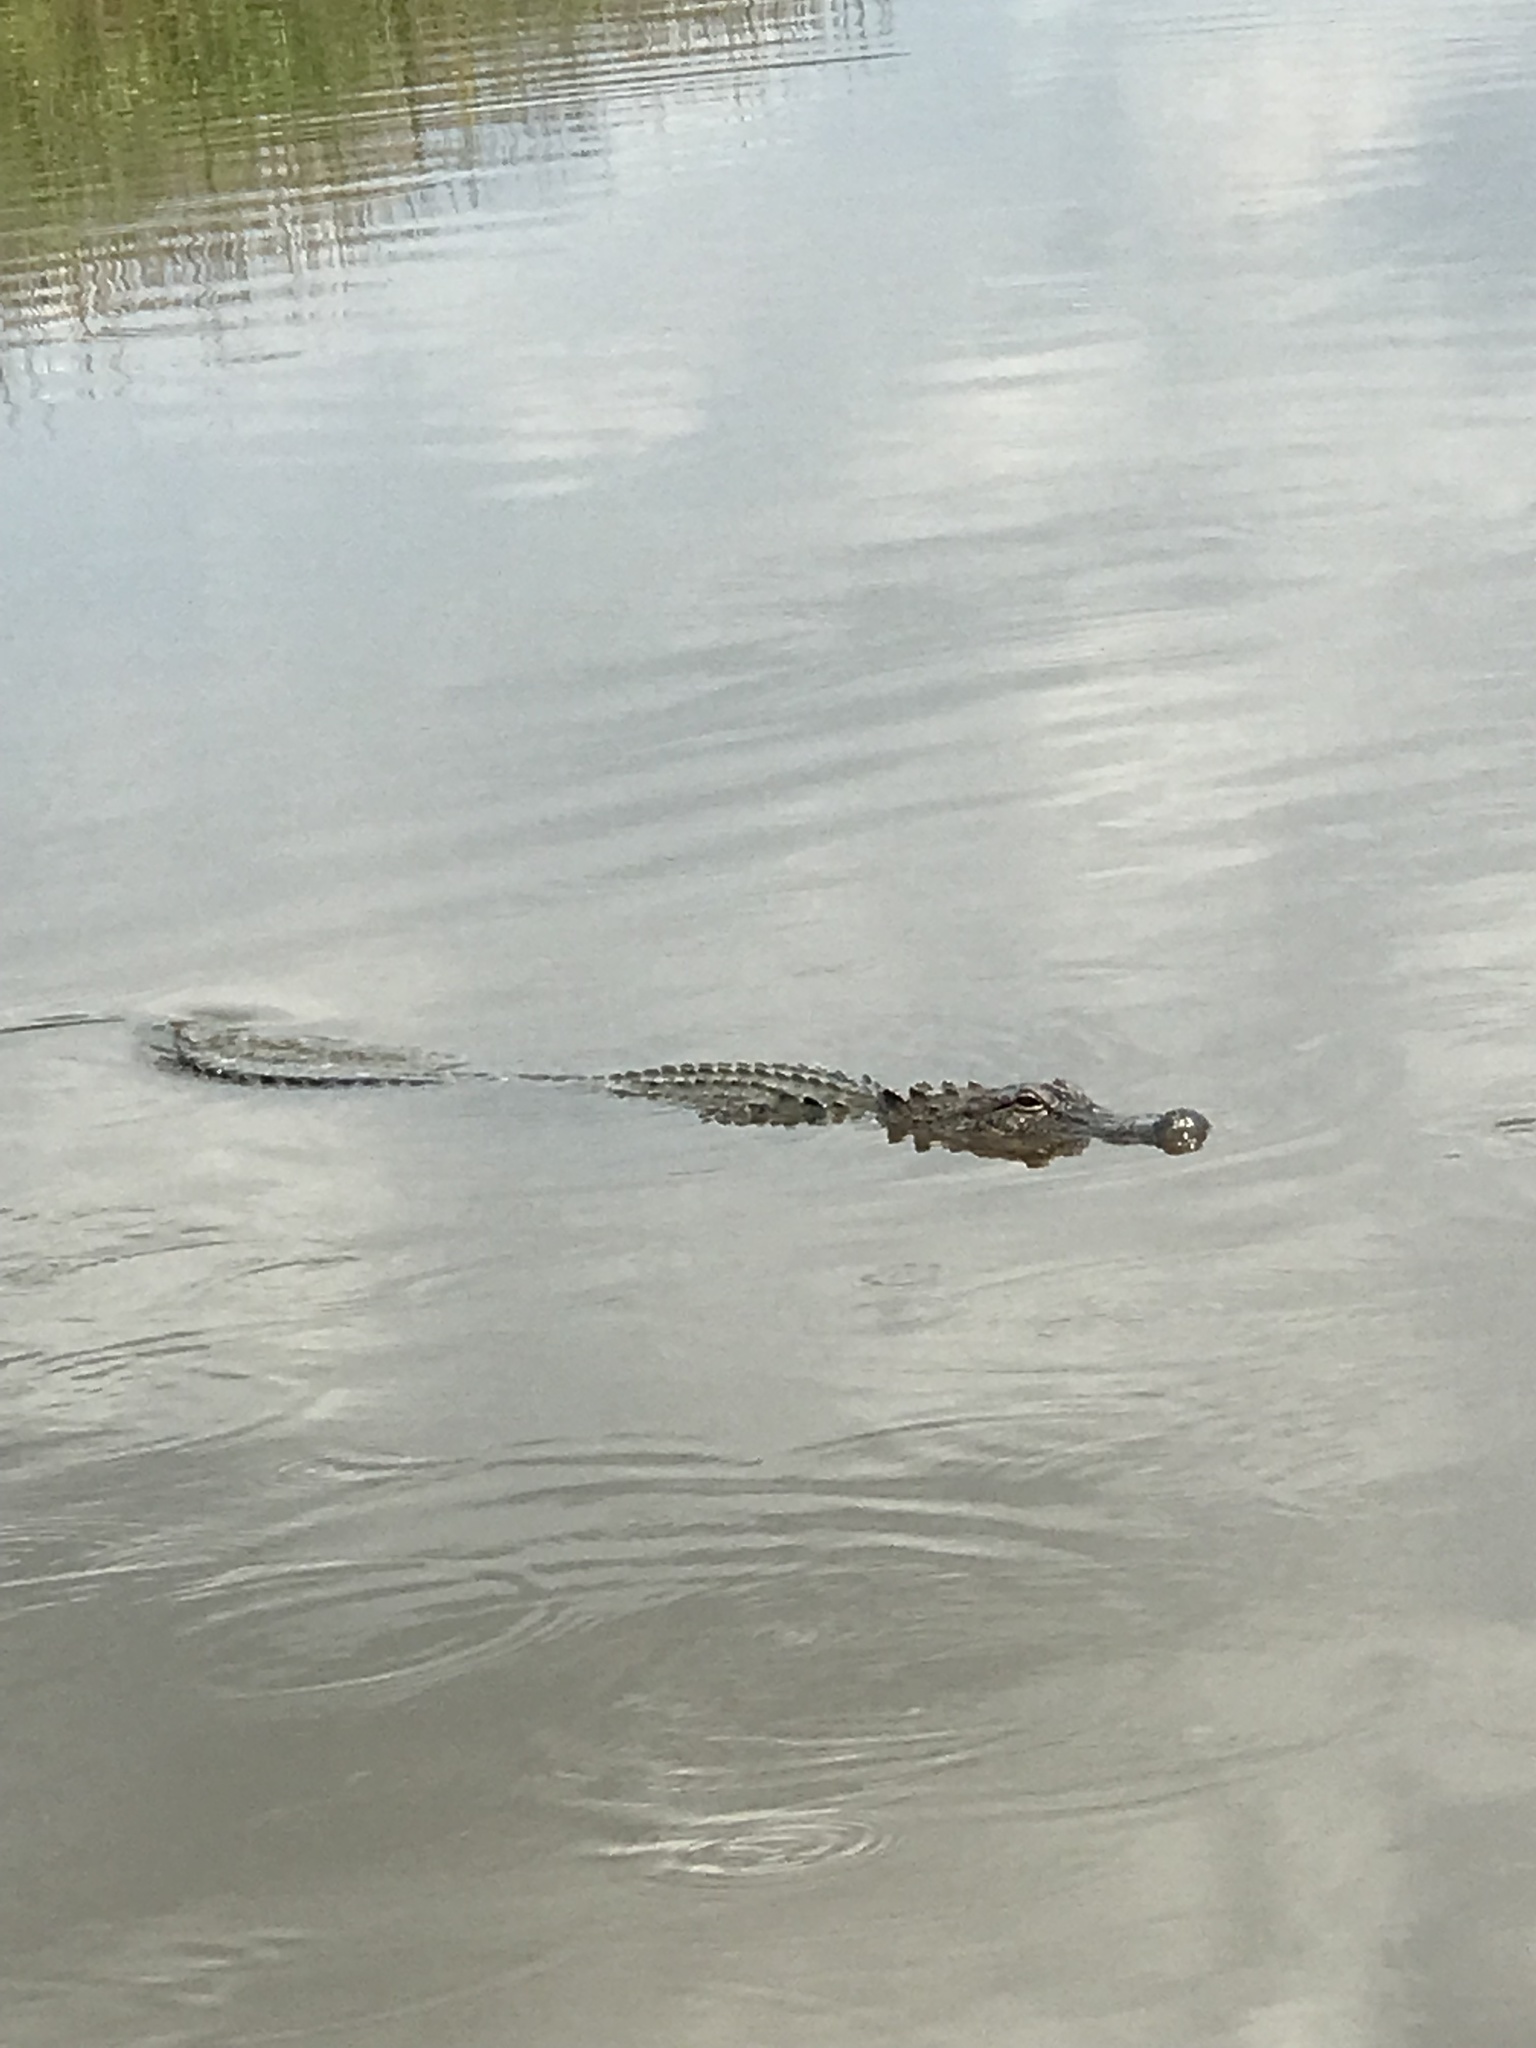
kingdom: Animalia
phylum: Chordata
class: Crocodylia
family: Alligatoridae
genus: Alligator
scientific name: Alligator mississippiensis
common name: American alligator
